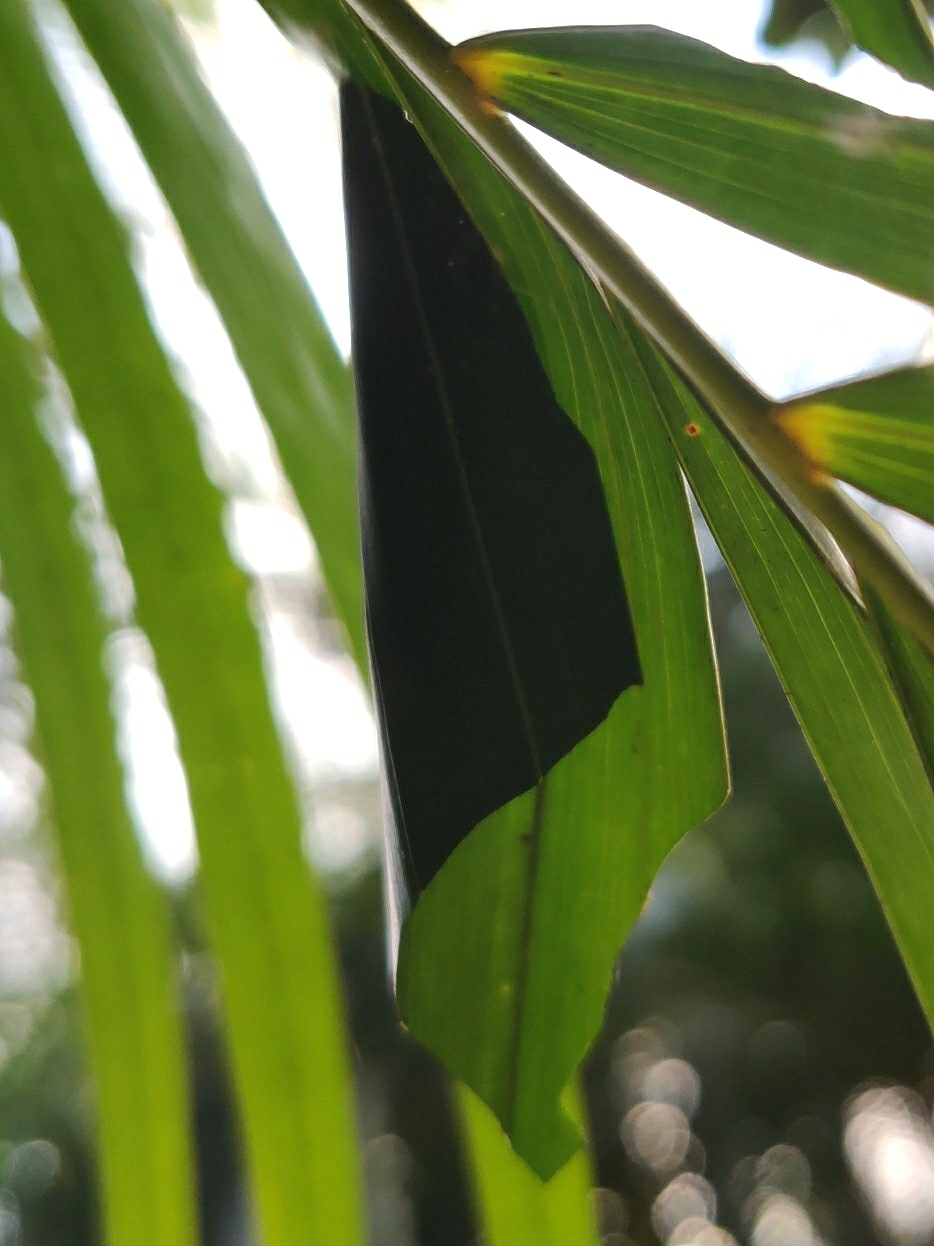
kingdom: Animalia
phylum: Arthropoda
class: Insecta
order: Lepidoptera
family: Hesperiidae
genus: Gangara
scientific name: Gangara thyrsis
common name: Giant redeye
